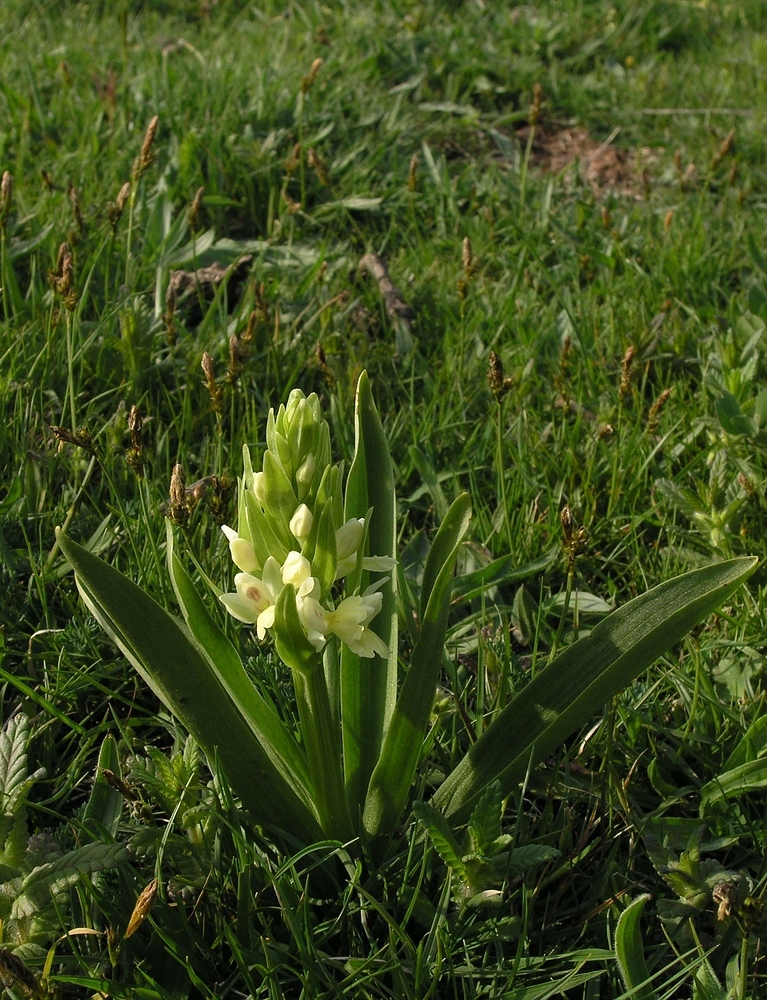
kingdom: Plantae
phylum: Tracheophyta
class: Liliopsida
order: Asparagales
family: Orchidaceae
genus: Dactylorhiza
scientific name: Dactylorhiza insularis
